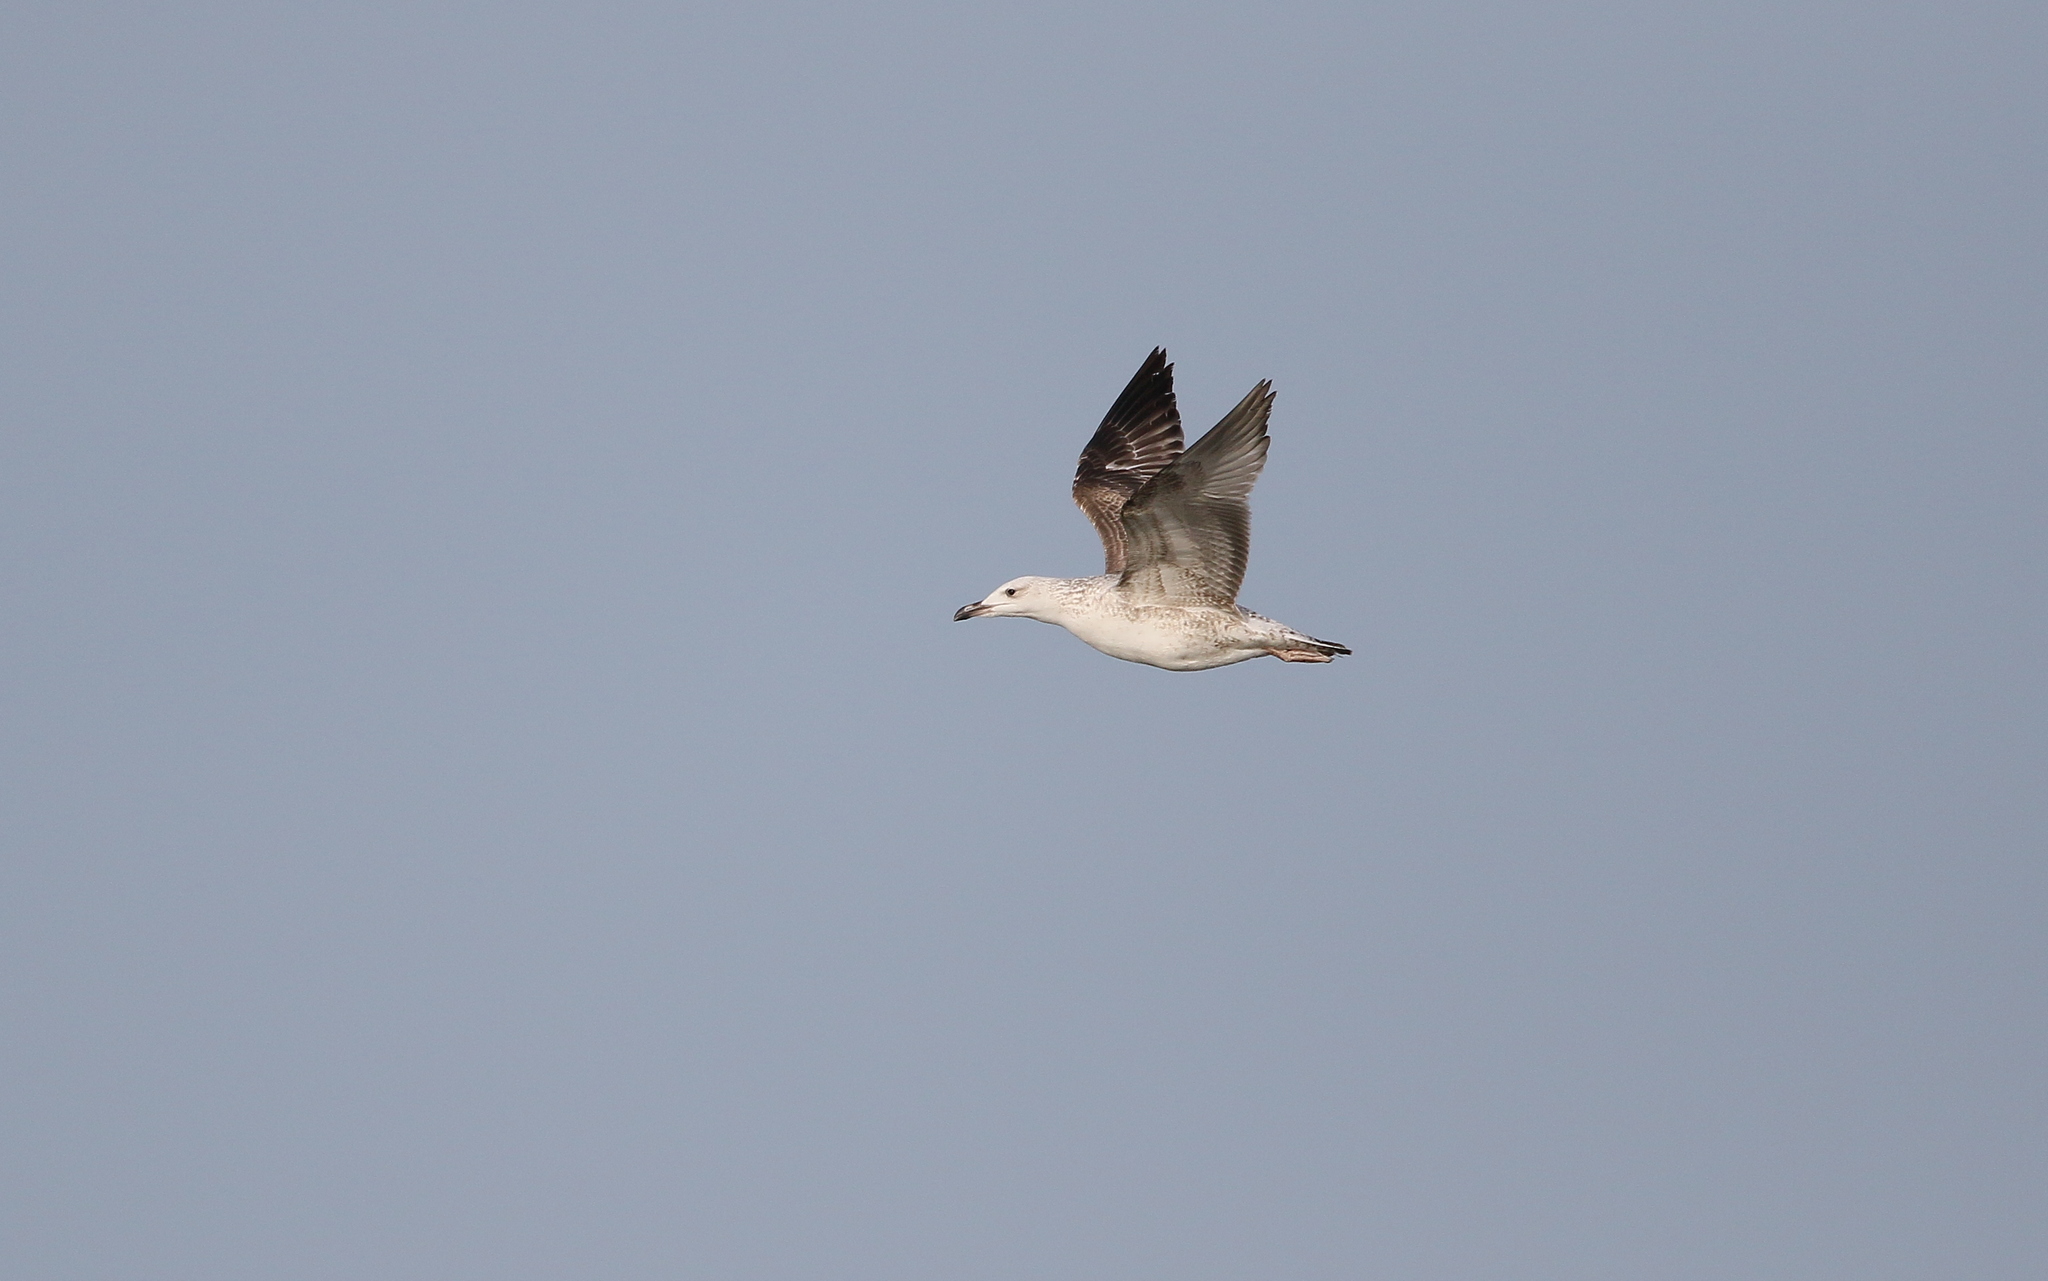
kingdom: Animalia
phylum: Chordata
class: Aves
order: Charadriiformes
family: Laridae
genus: Larus
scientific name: Larus michahellis
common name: Yellow-legged gull
